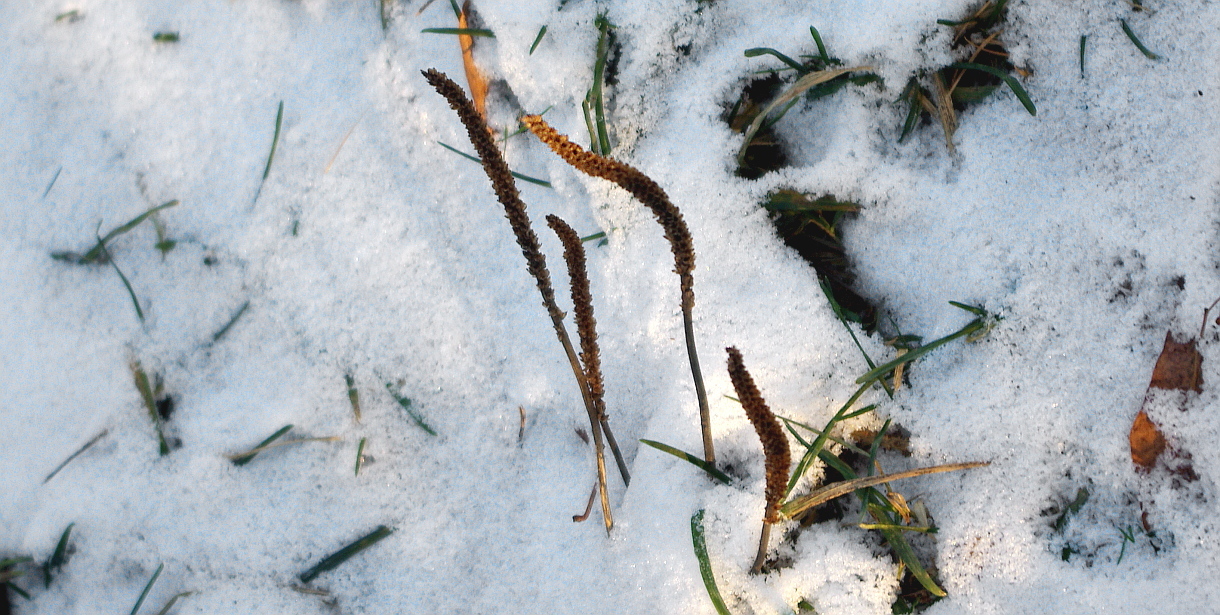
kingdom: Plantae
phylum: Tracheophyta
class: Magnoliopsida
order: Lamiales
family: Plantaginaceae
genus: Plantago
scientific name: Plantago major
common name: Common plantain
